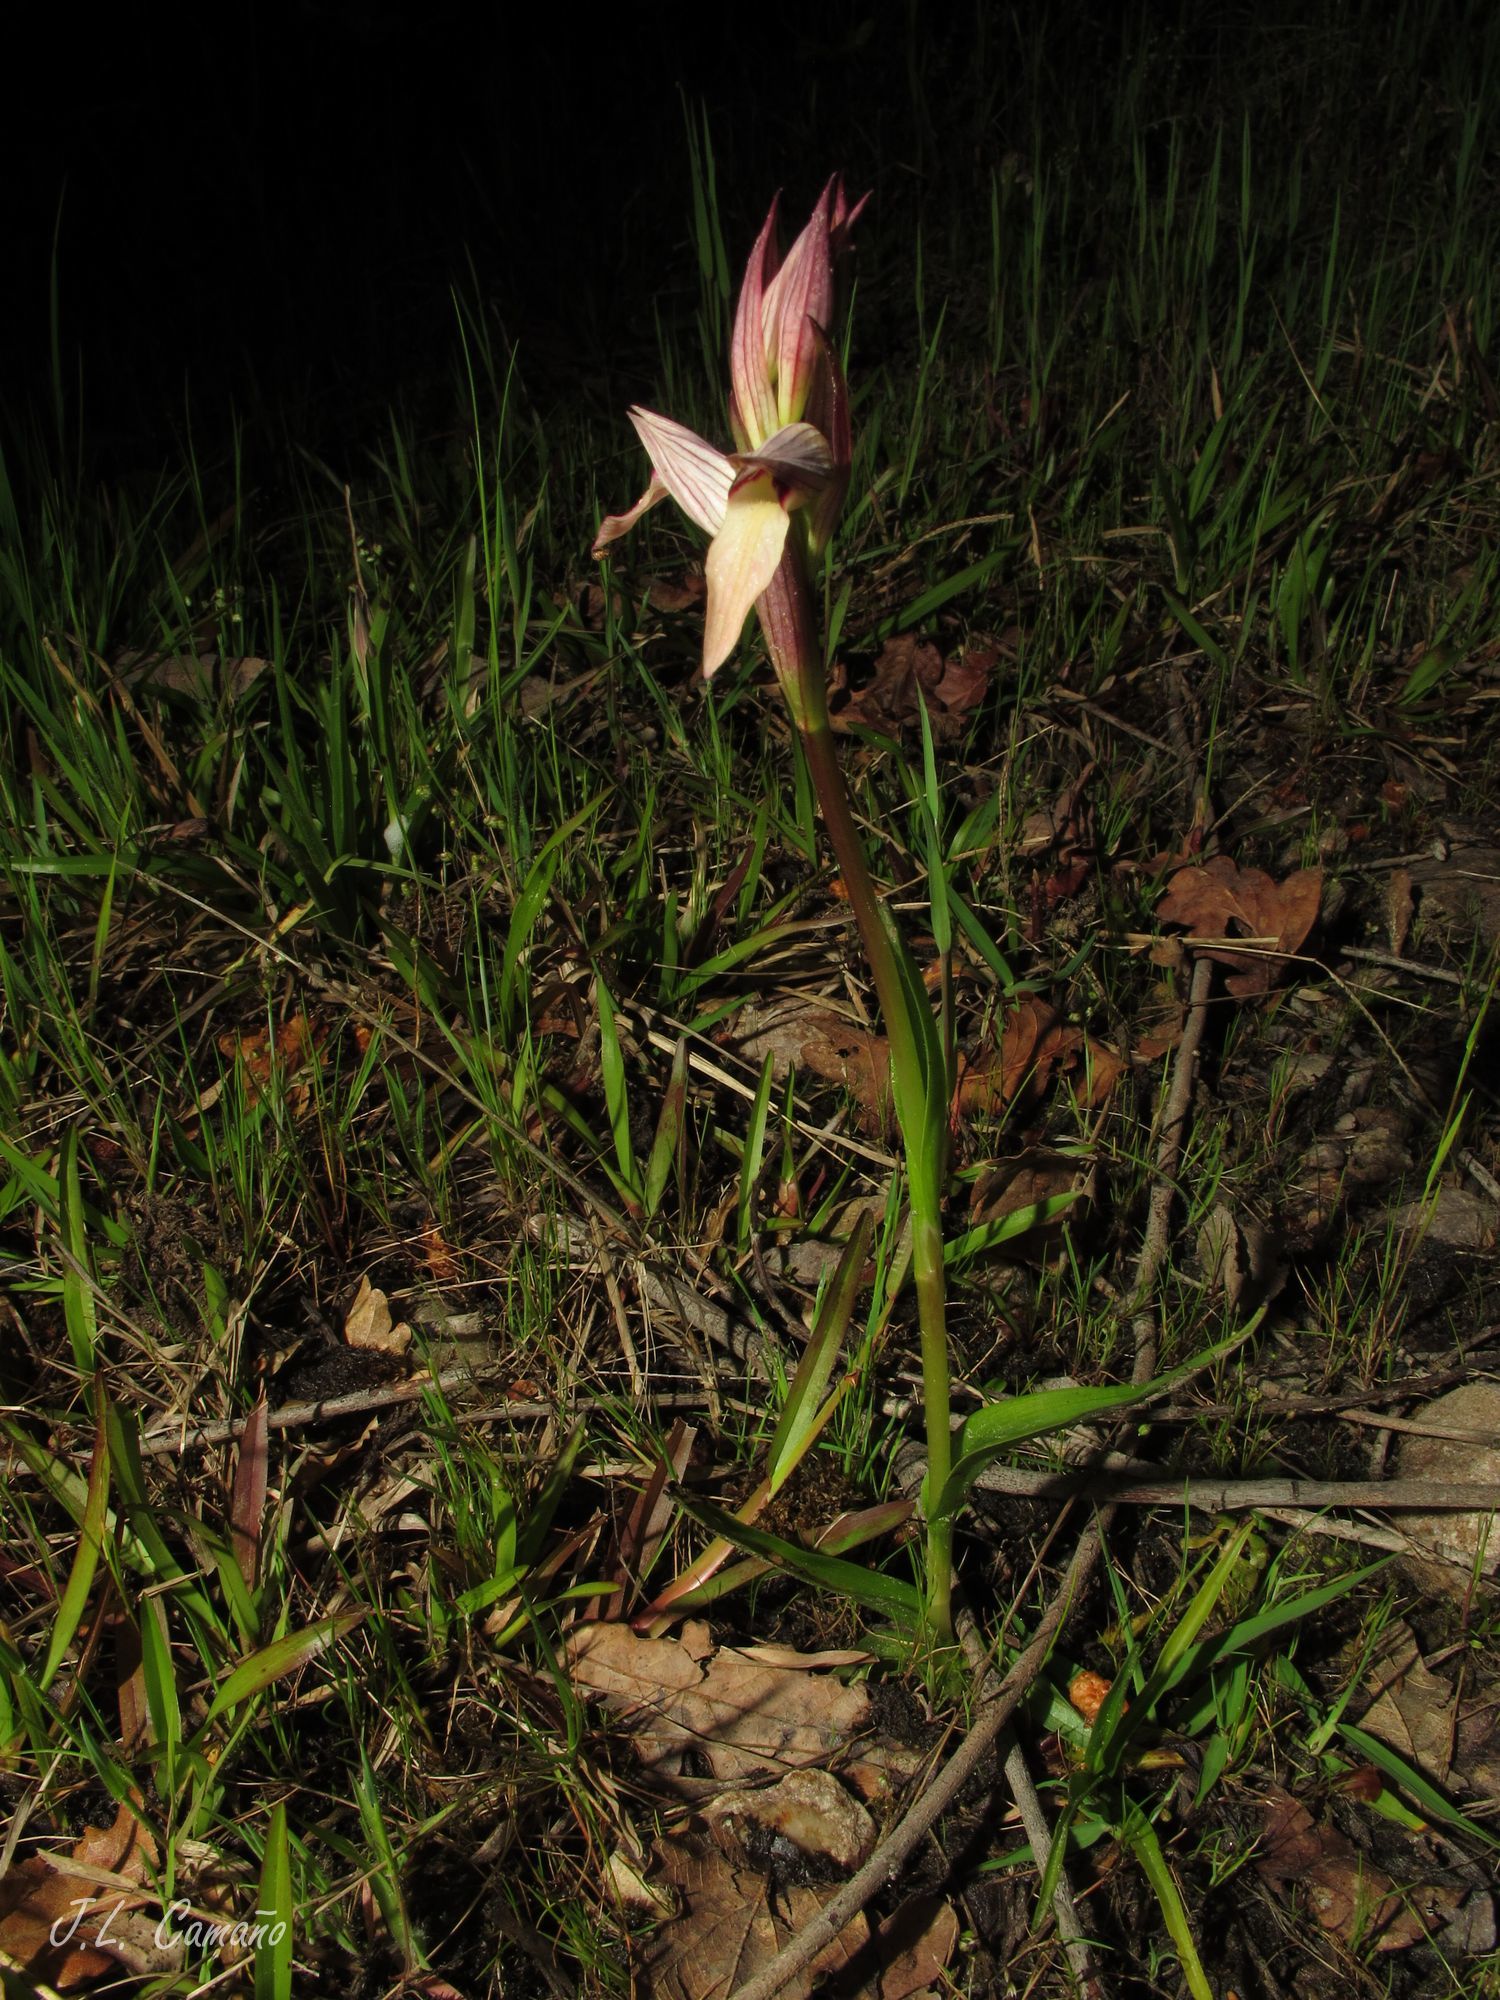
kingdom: Plantae
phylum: Tracheophyta
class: Liliopsida
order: Asparagales
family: Orchidaceae
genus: Serapias
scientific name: Serapias lingua
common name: Tongue-orchid
